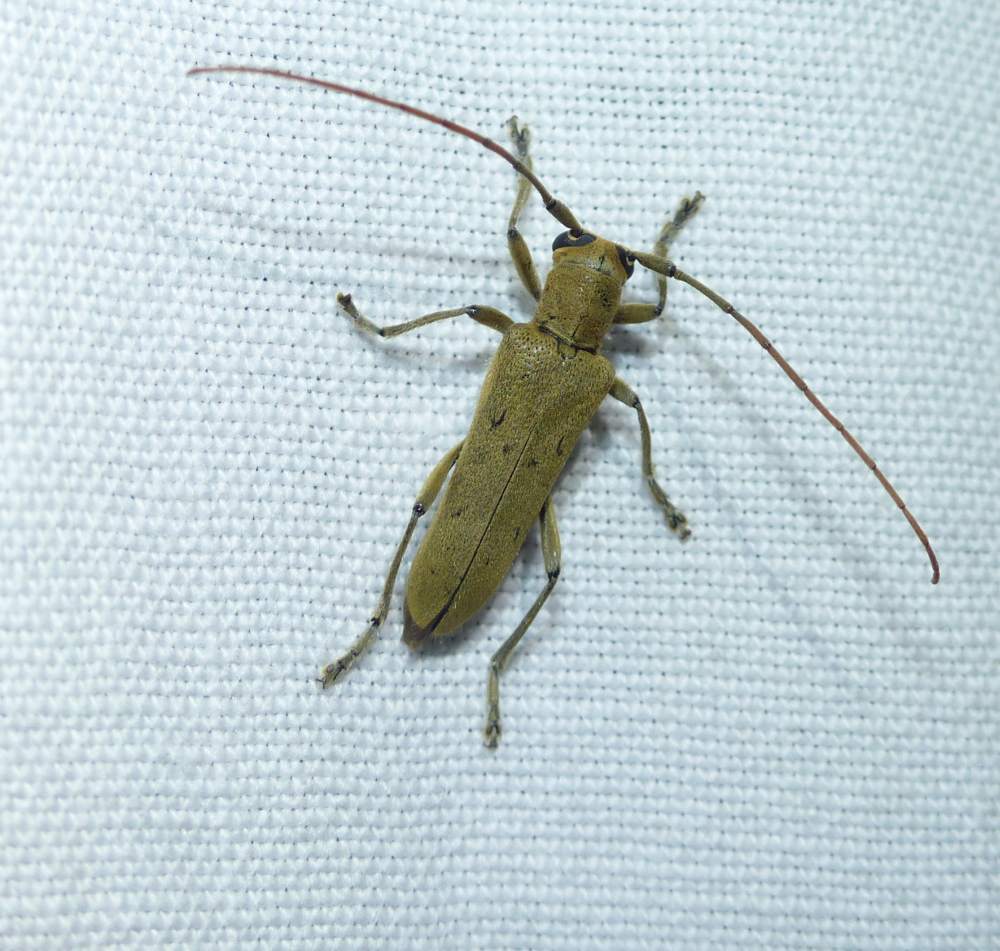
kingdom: Animalia
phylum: Arthropoda
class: Insecta
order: Coleoptera
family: Cerambycidae
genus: Saperda
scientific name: Saperda vestita
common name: Linden borer
